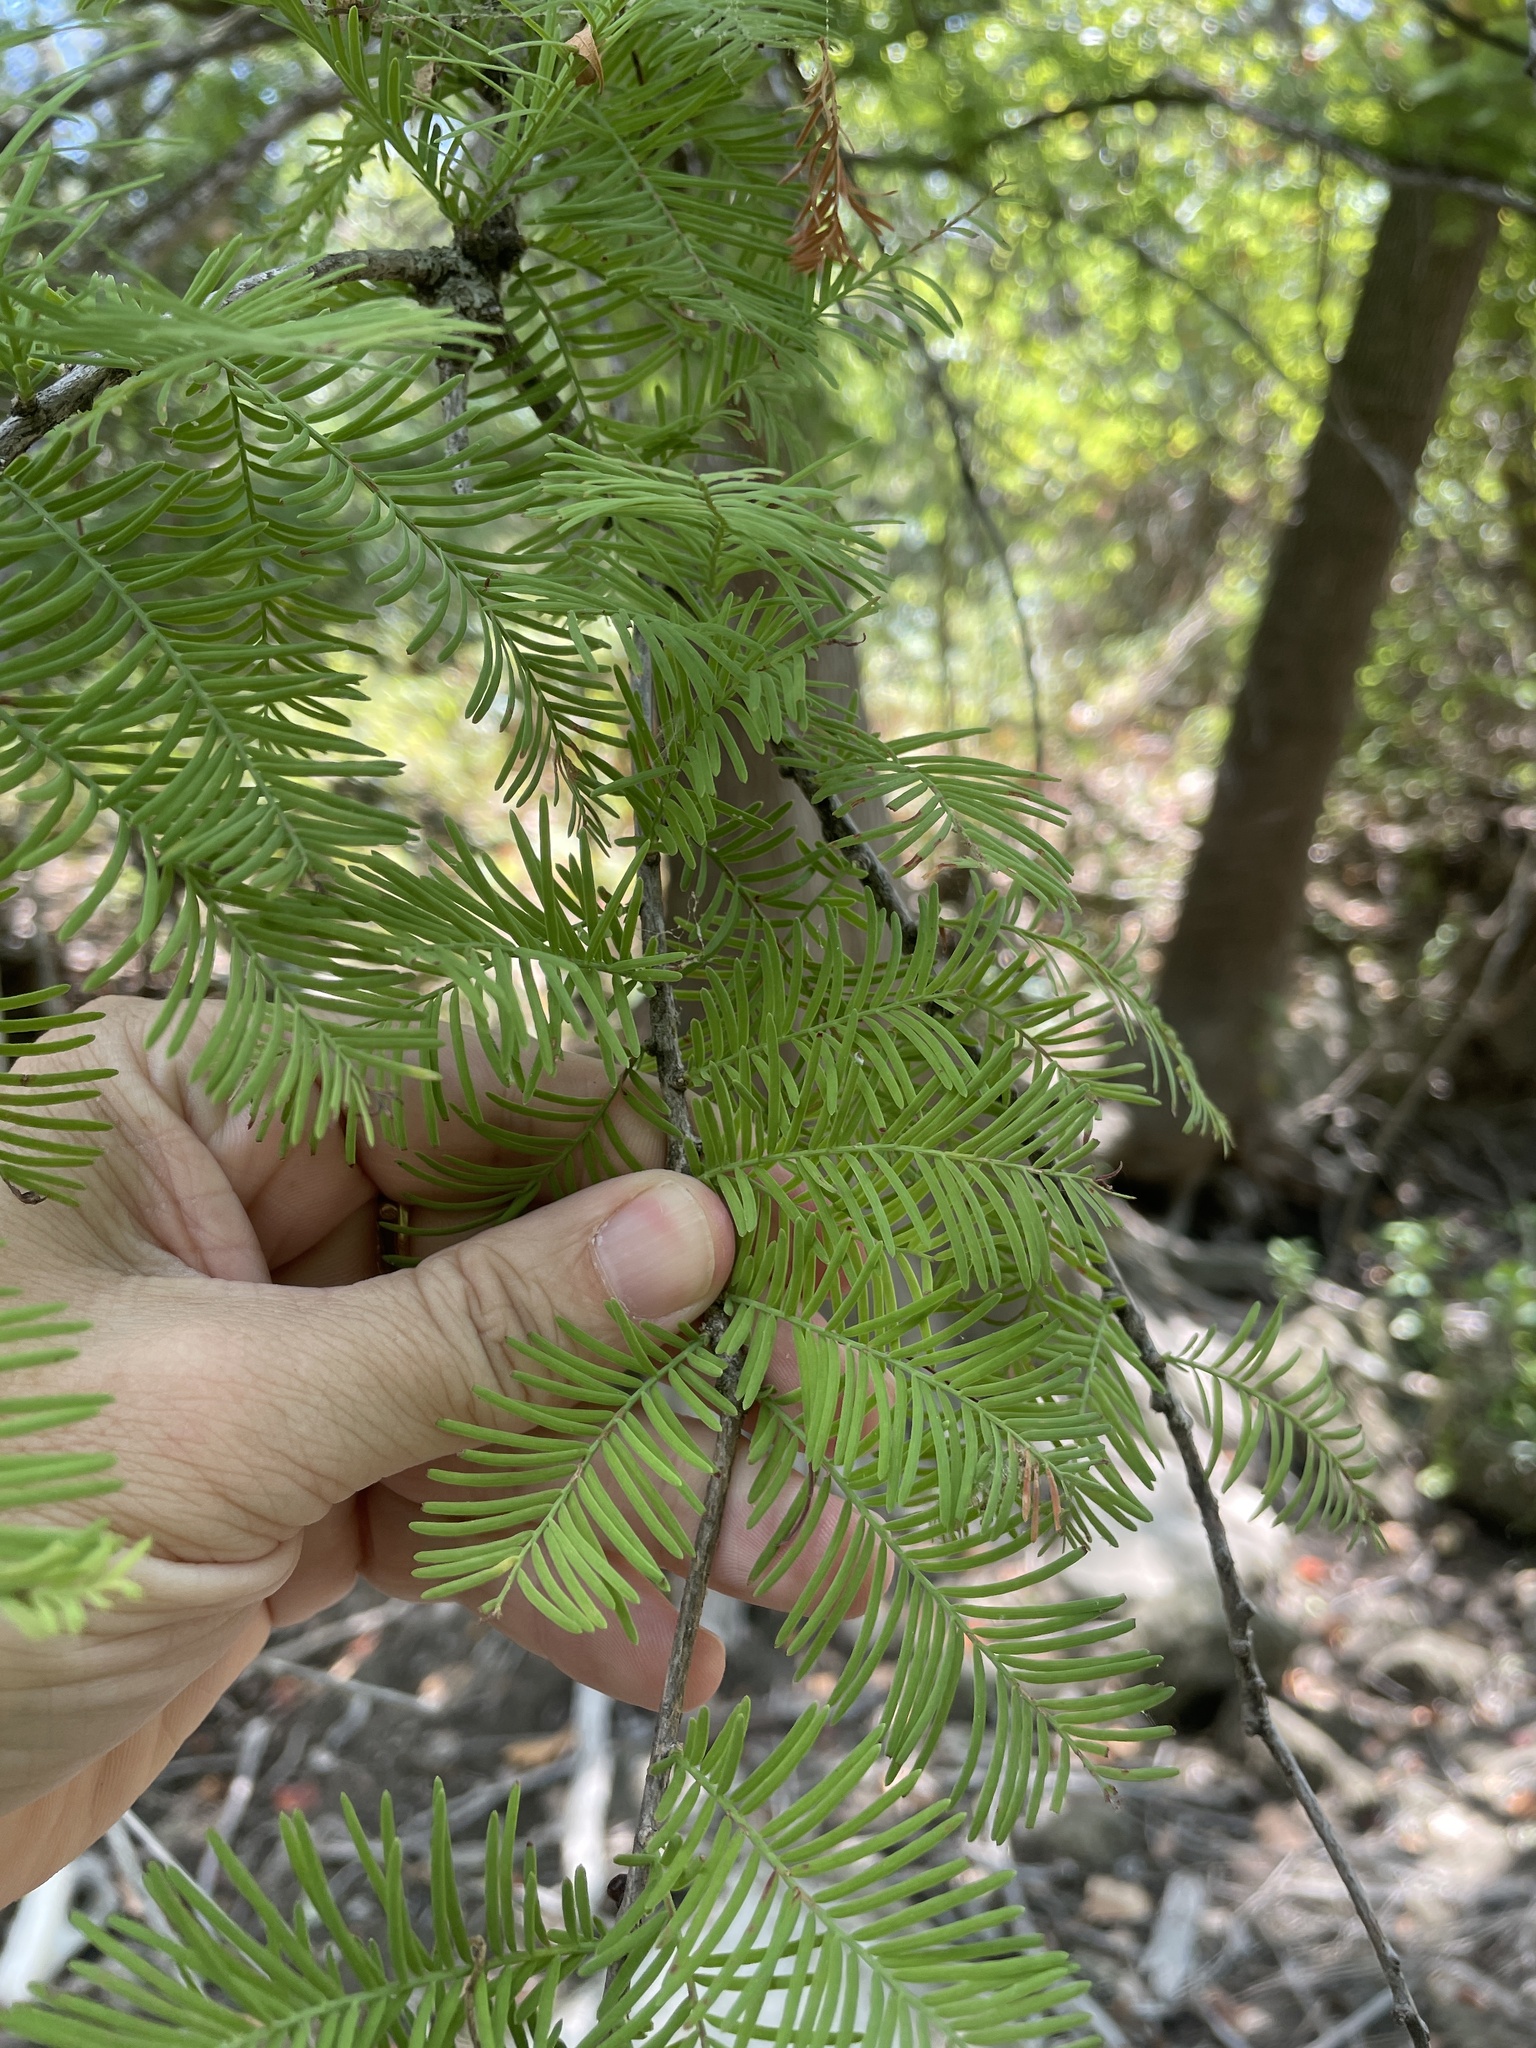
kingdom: Plantae
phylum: Tracheophyta
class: Pinopsida
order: Pinales
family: Cupressaceae
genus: Taxodium
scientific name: Taxodium distichum
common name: Bald cypress
